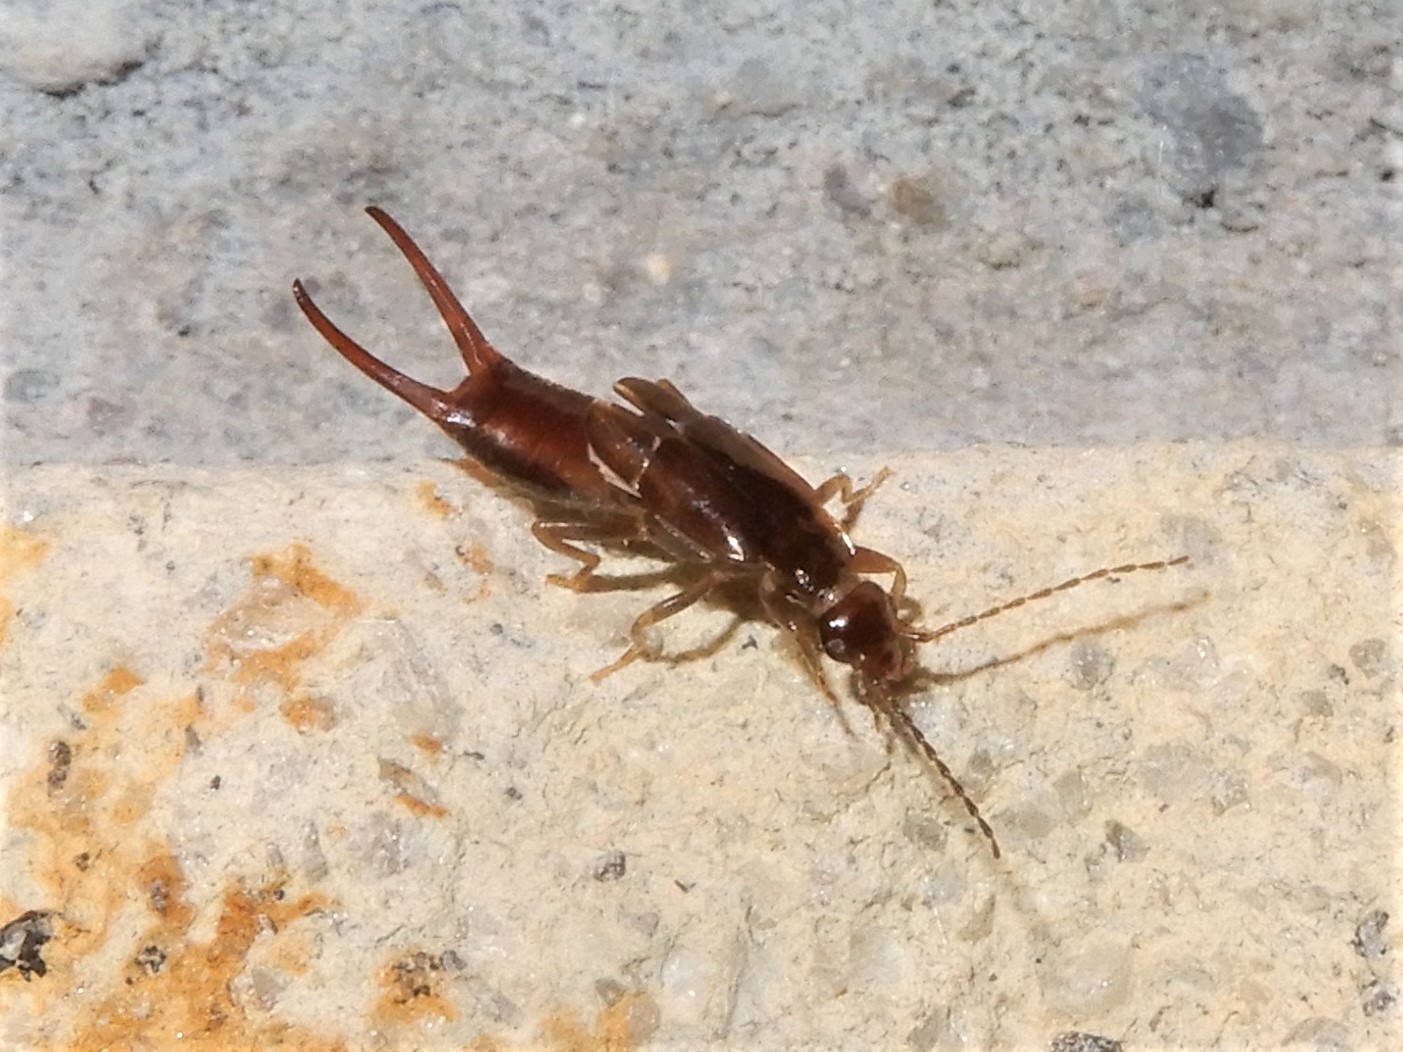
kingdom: Animalia
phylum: Arthropoda
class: Insecta
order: Dermaptera
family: Spongiphoridae
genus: Nesogaster
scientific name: Nesogaster halli
